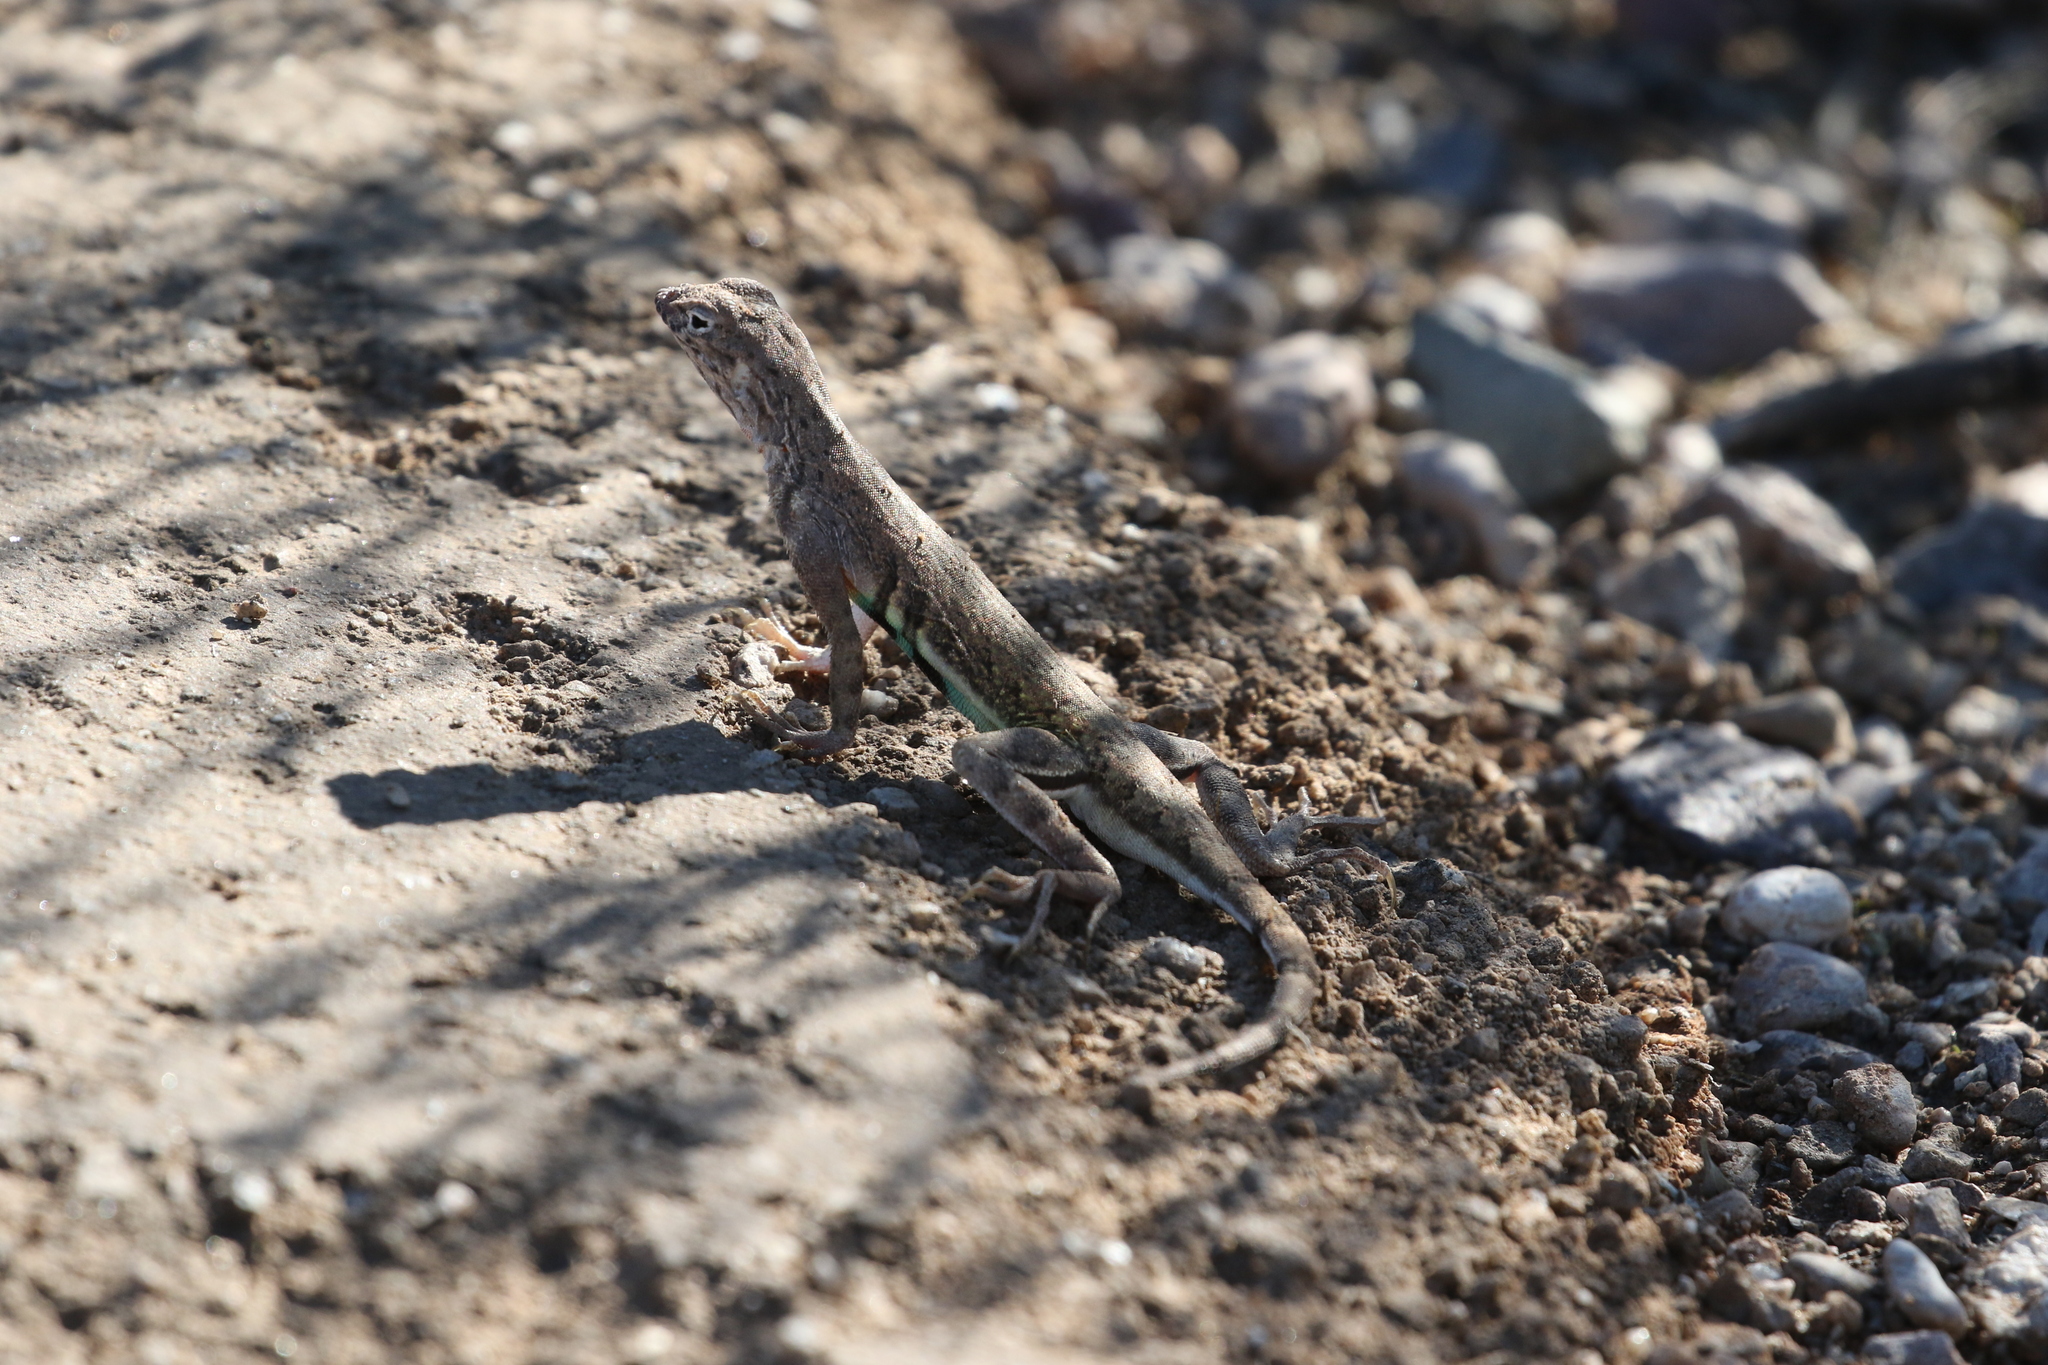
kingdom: Animalia
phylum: Chordata
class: Squamata
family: Phrynosomatidae
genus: Callisaurus
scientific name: Callisaurus draconoides
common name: Zebra-tailed lizard
